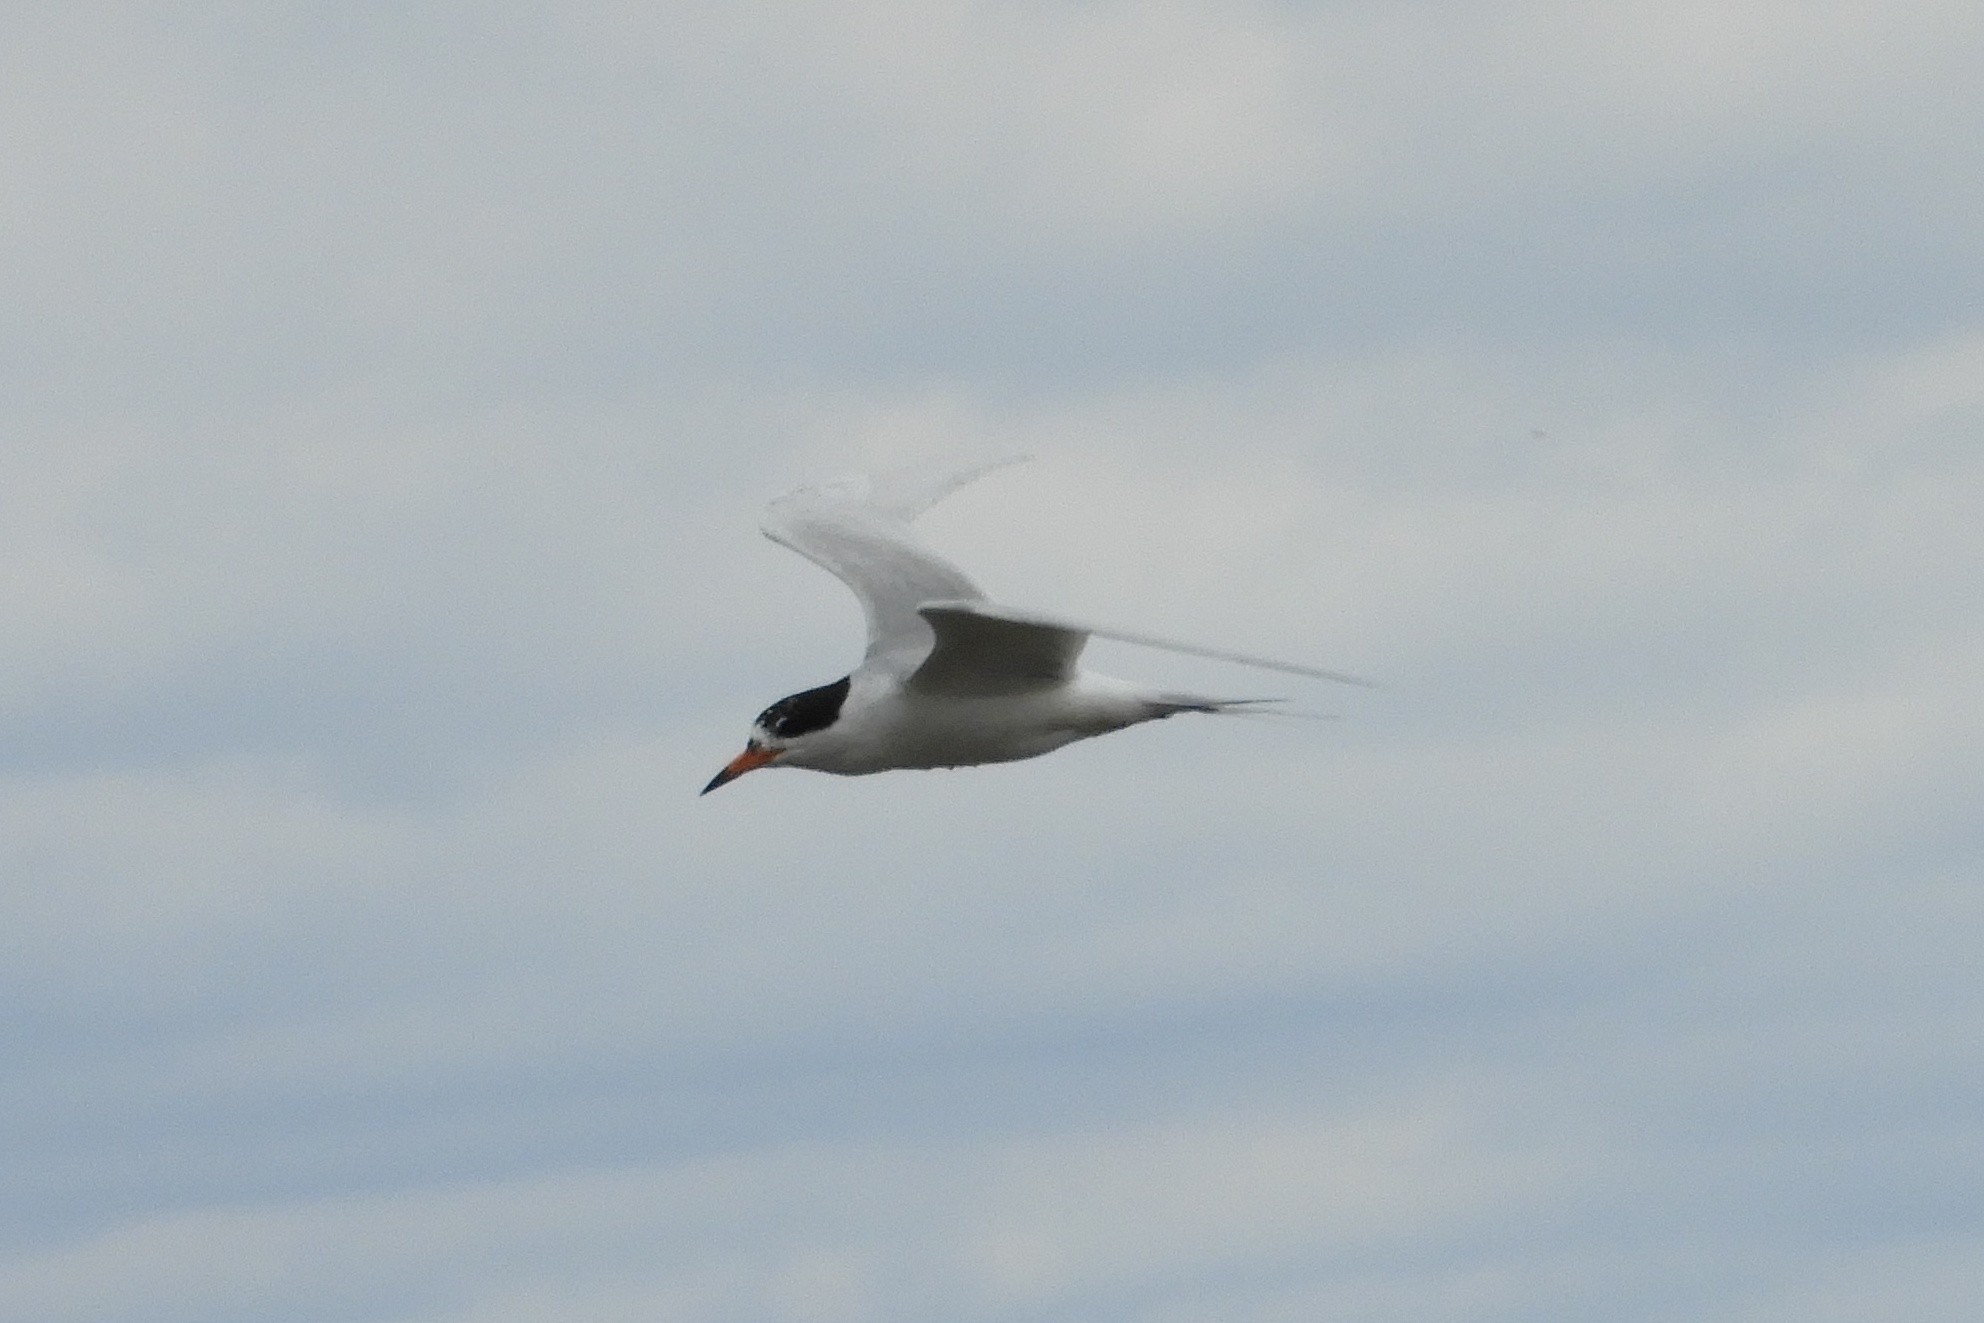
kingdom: Animalia
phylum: Chordata
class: Aves
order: Charadriiformes
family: Laridae
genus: Sterna
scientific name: Sterna hirundo
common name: Common tern
